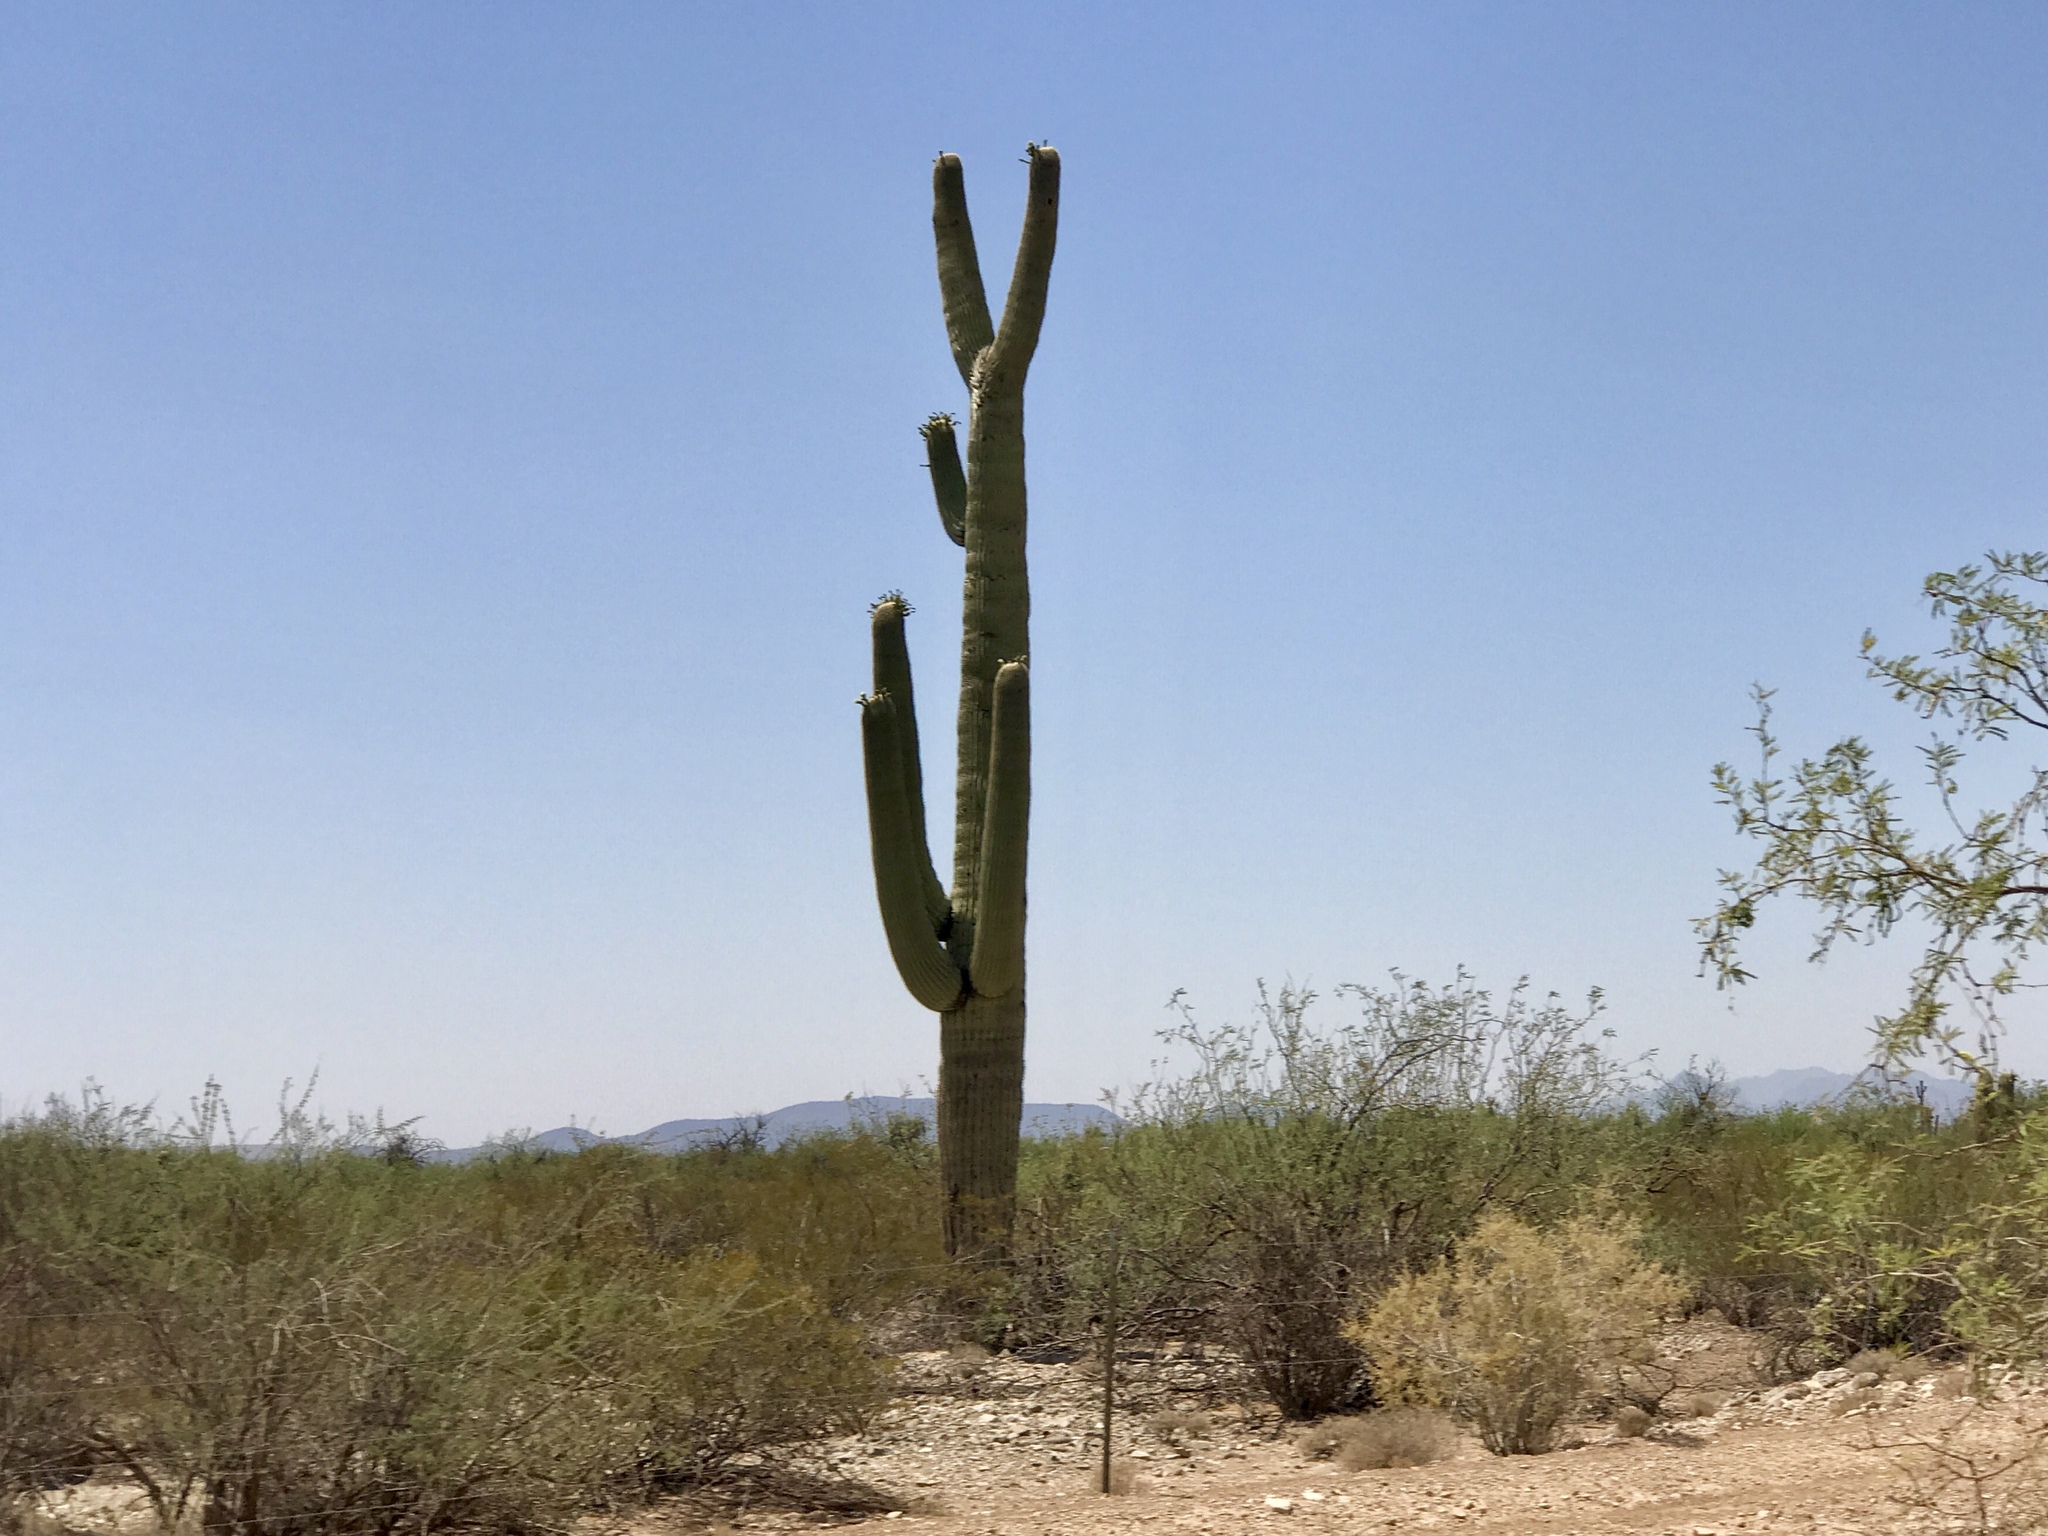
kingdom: Plantae
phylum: Tracheophyta
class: Magnoliopsida
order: Caryophyllales
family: Cactaceae
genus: Carnegiea
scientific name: Carnegiea gigantea
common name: Saguaro
